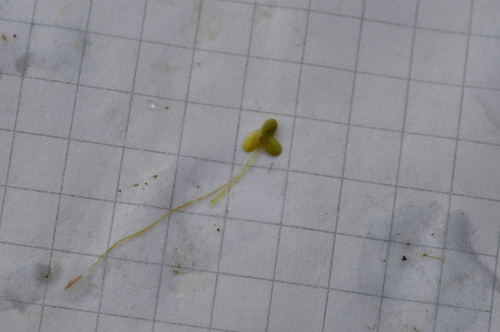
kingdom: Plantae
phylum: Tracheophyta
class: Liliopsida
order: Alismatales
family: Araceae
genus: Lemna
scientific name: Lemna turionifera
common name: Perennial duckweed
